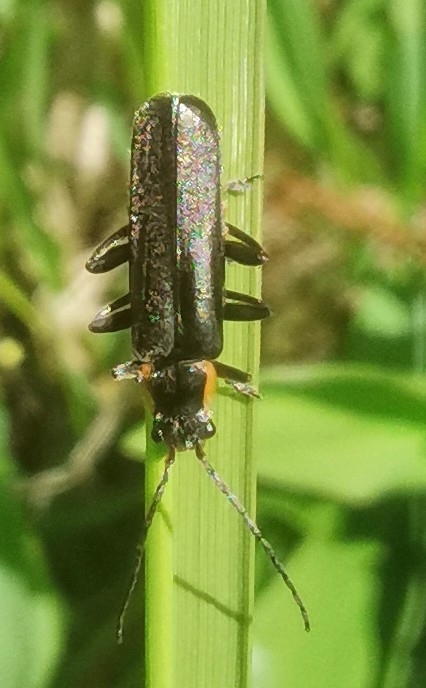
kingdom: Animalia
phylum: Arthropoda
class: Insecta
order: Coleoptera
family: Cantharidae
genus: Cantharis
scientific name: Cantharis obscura
